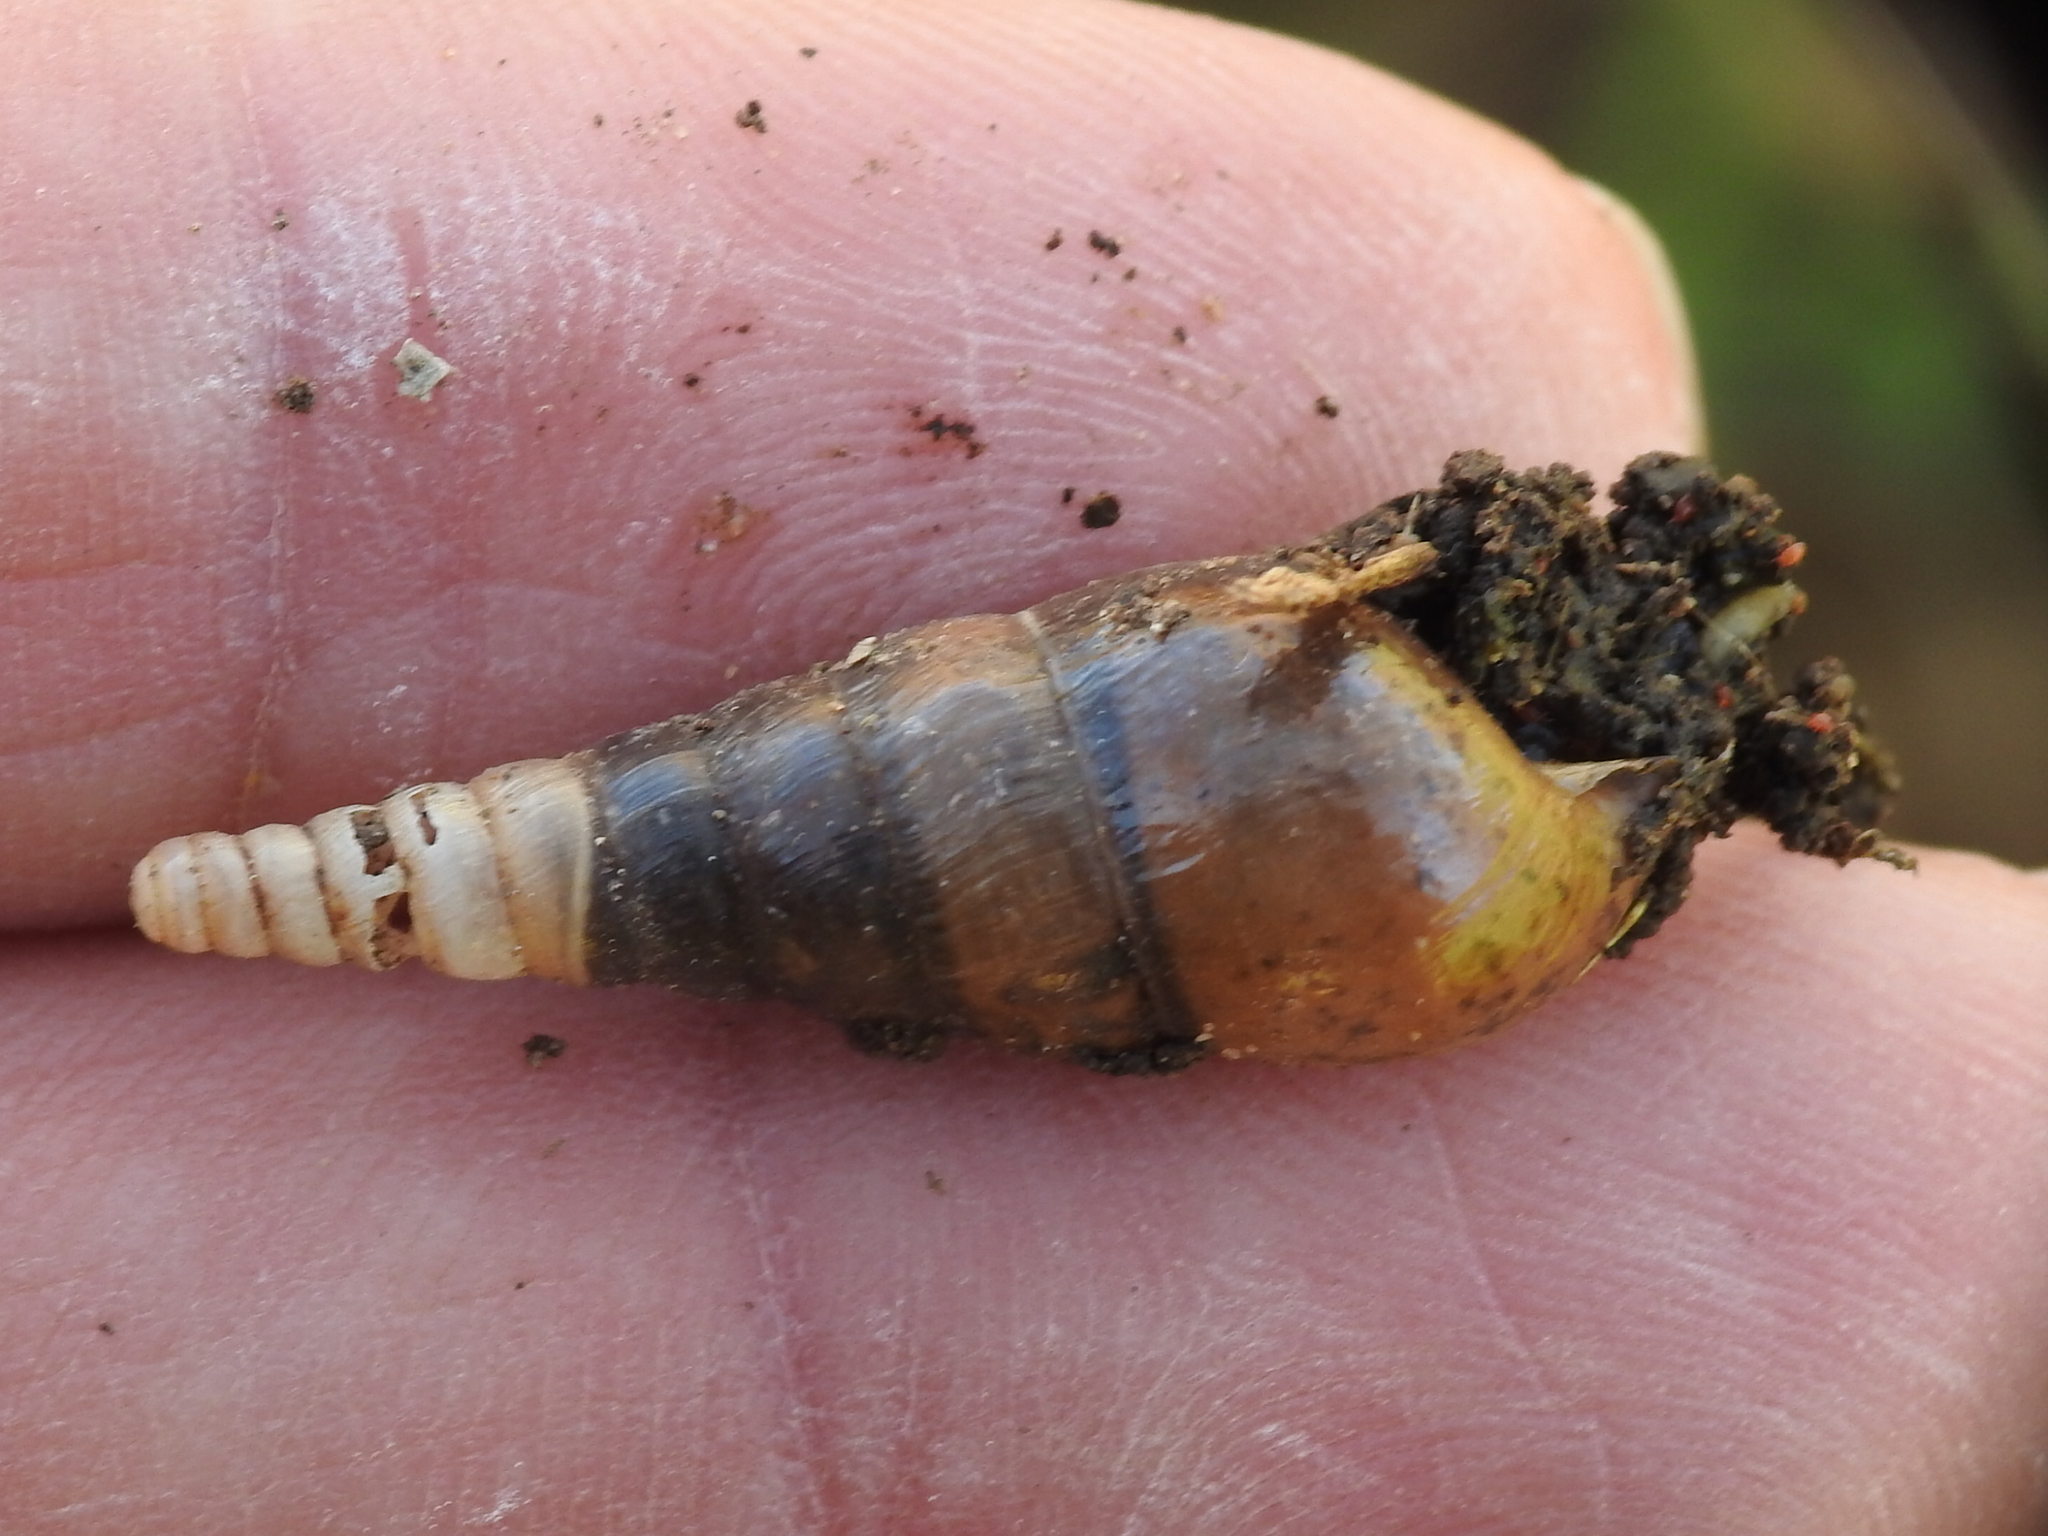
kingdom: Animalia
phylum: Mollusca
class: Gastropoda
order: Stylommatophora
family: Achatinidae
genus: Rumina
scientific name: Rumina decollata
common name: Decollate snail
